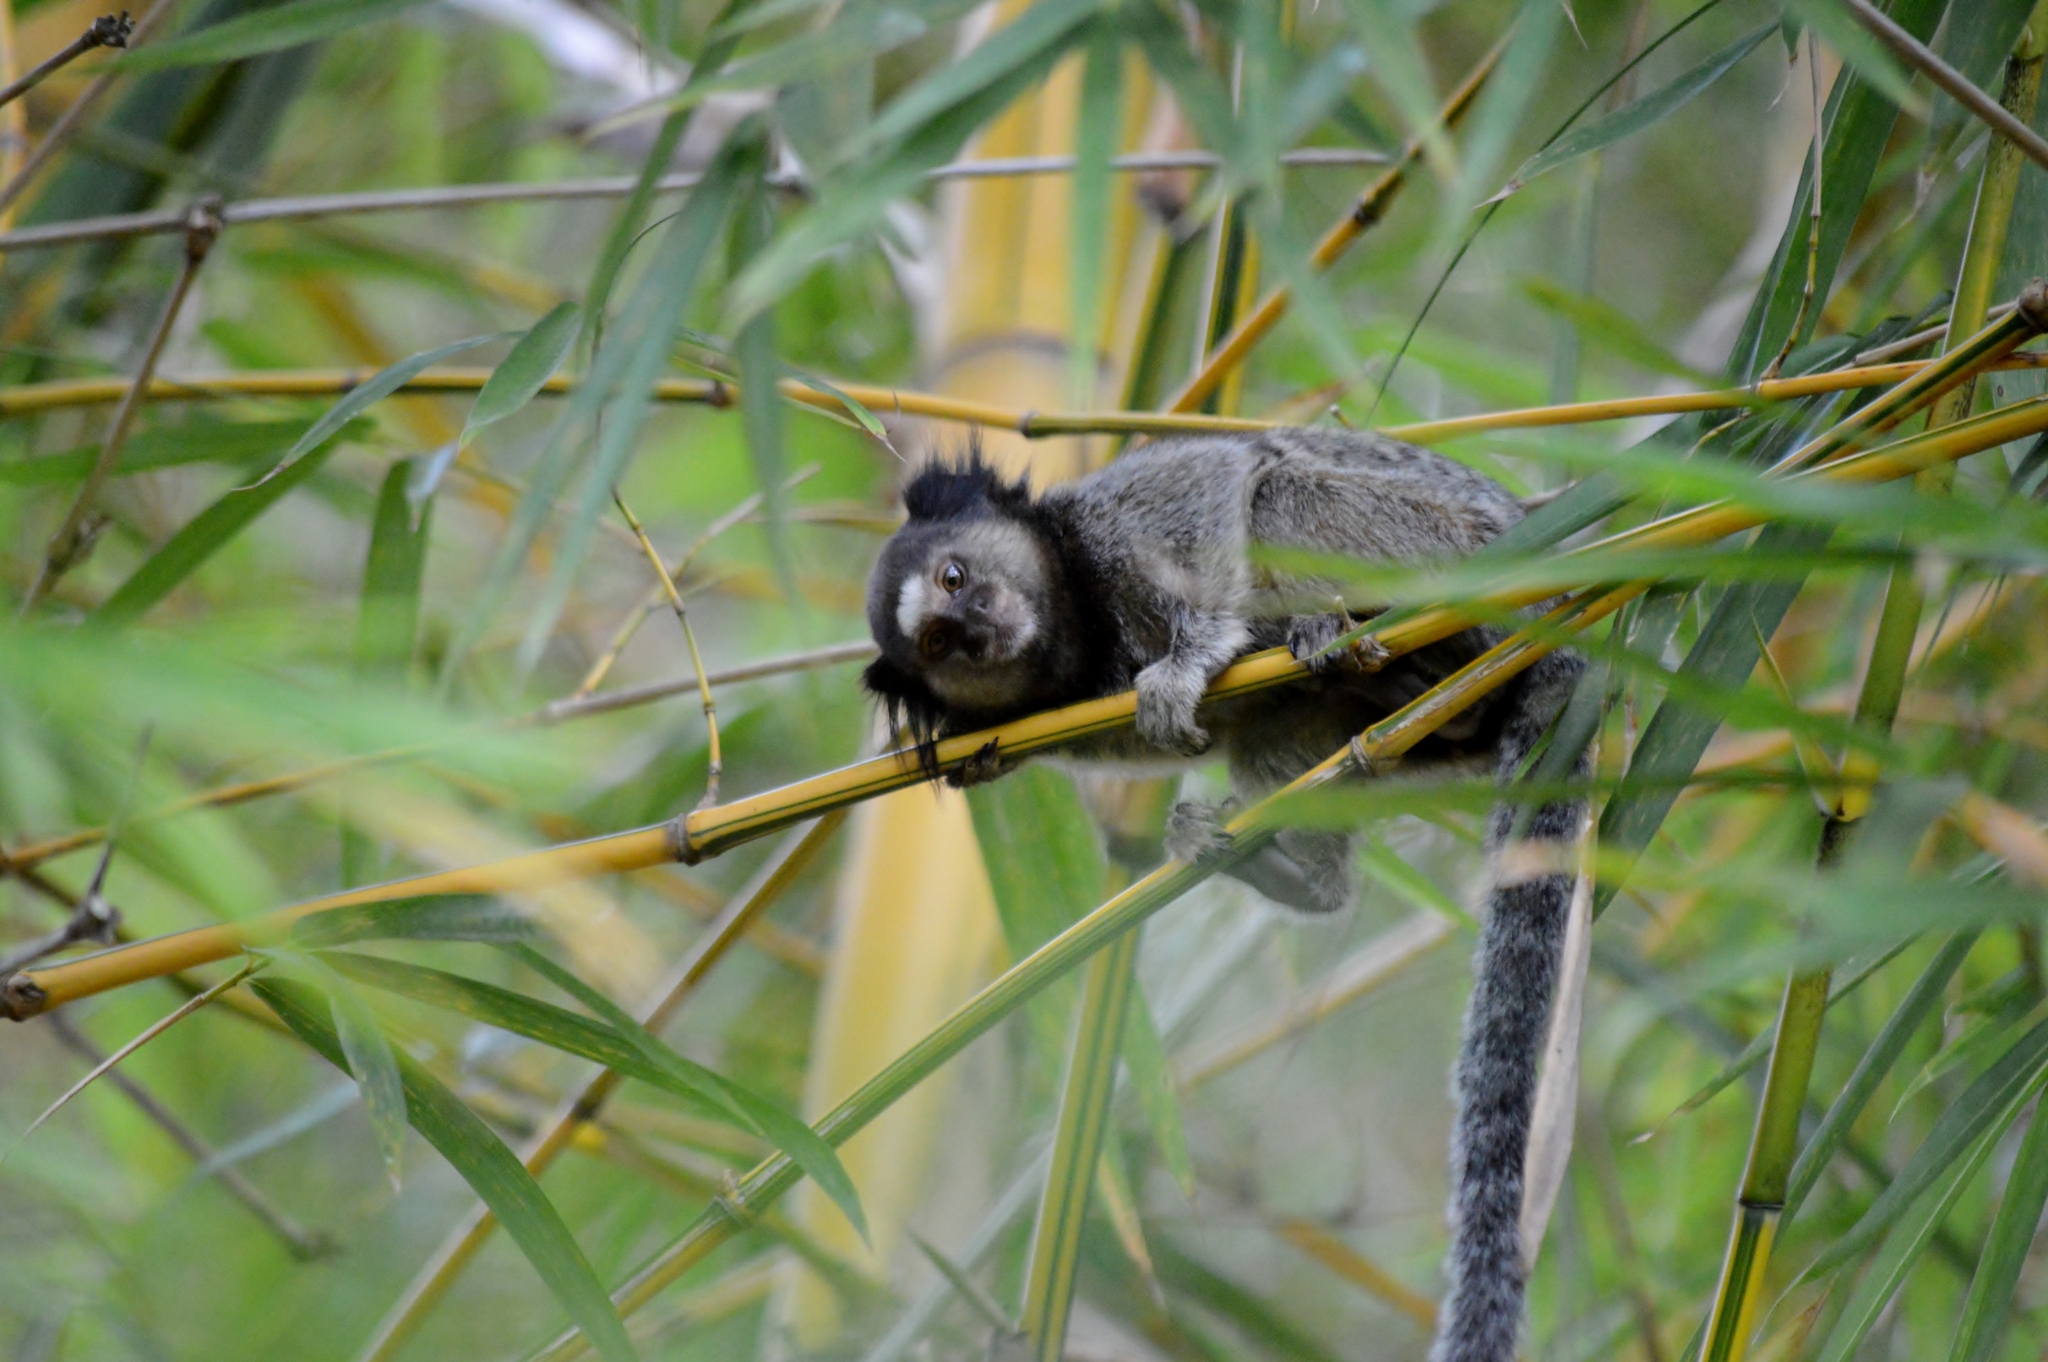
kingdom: Animalia
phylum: Chordata
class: Mammalia
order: Primates
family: Callitrichidae
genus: Callithrix
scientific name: Callithrix penicillata
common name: Black-tufted marmoset
